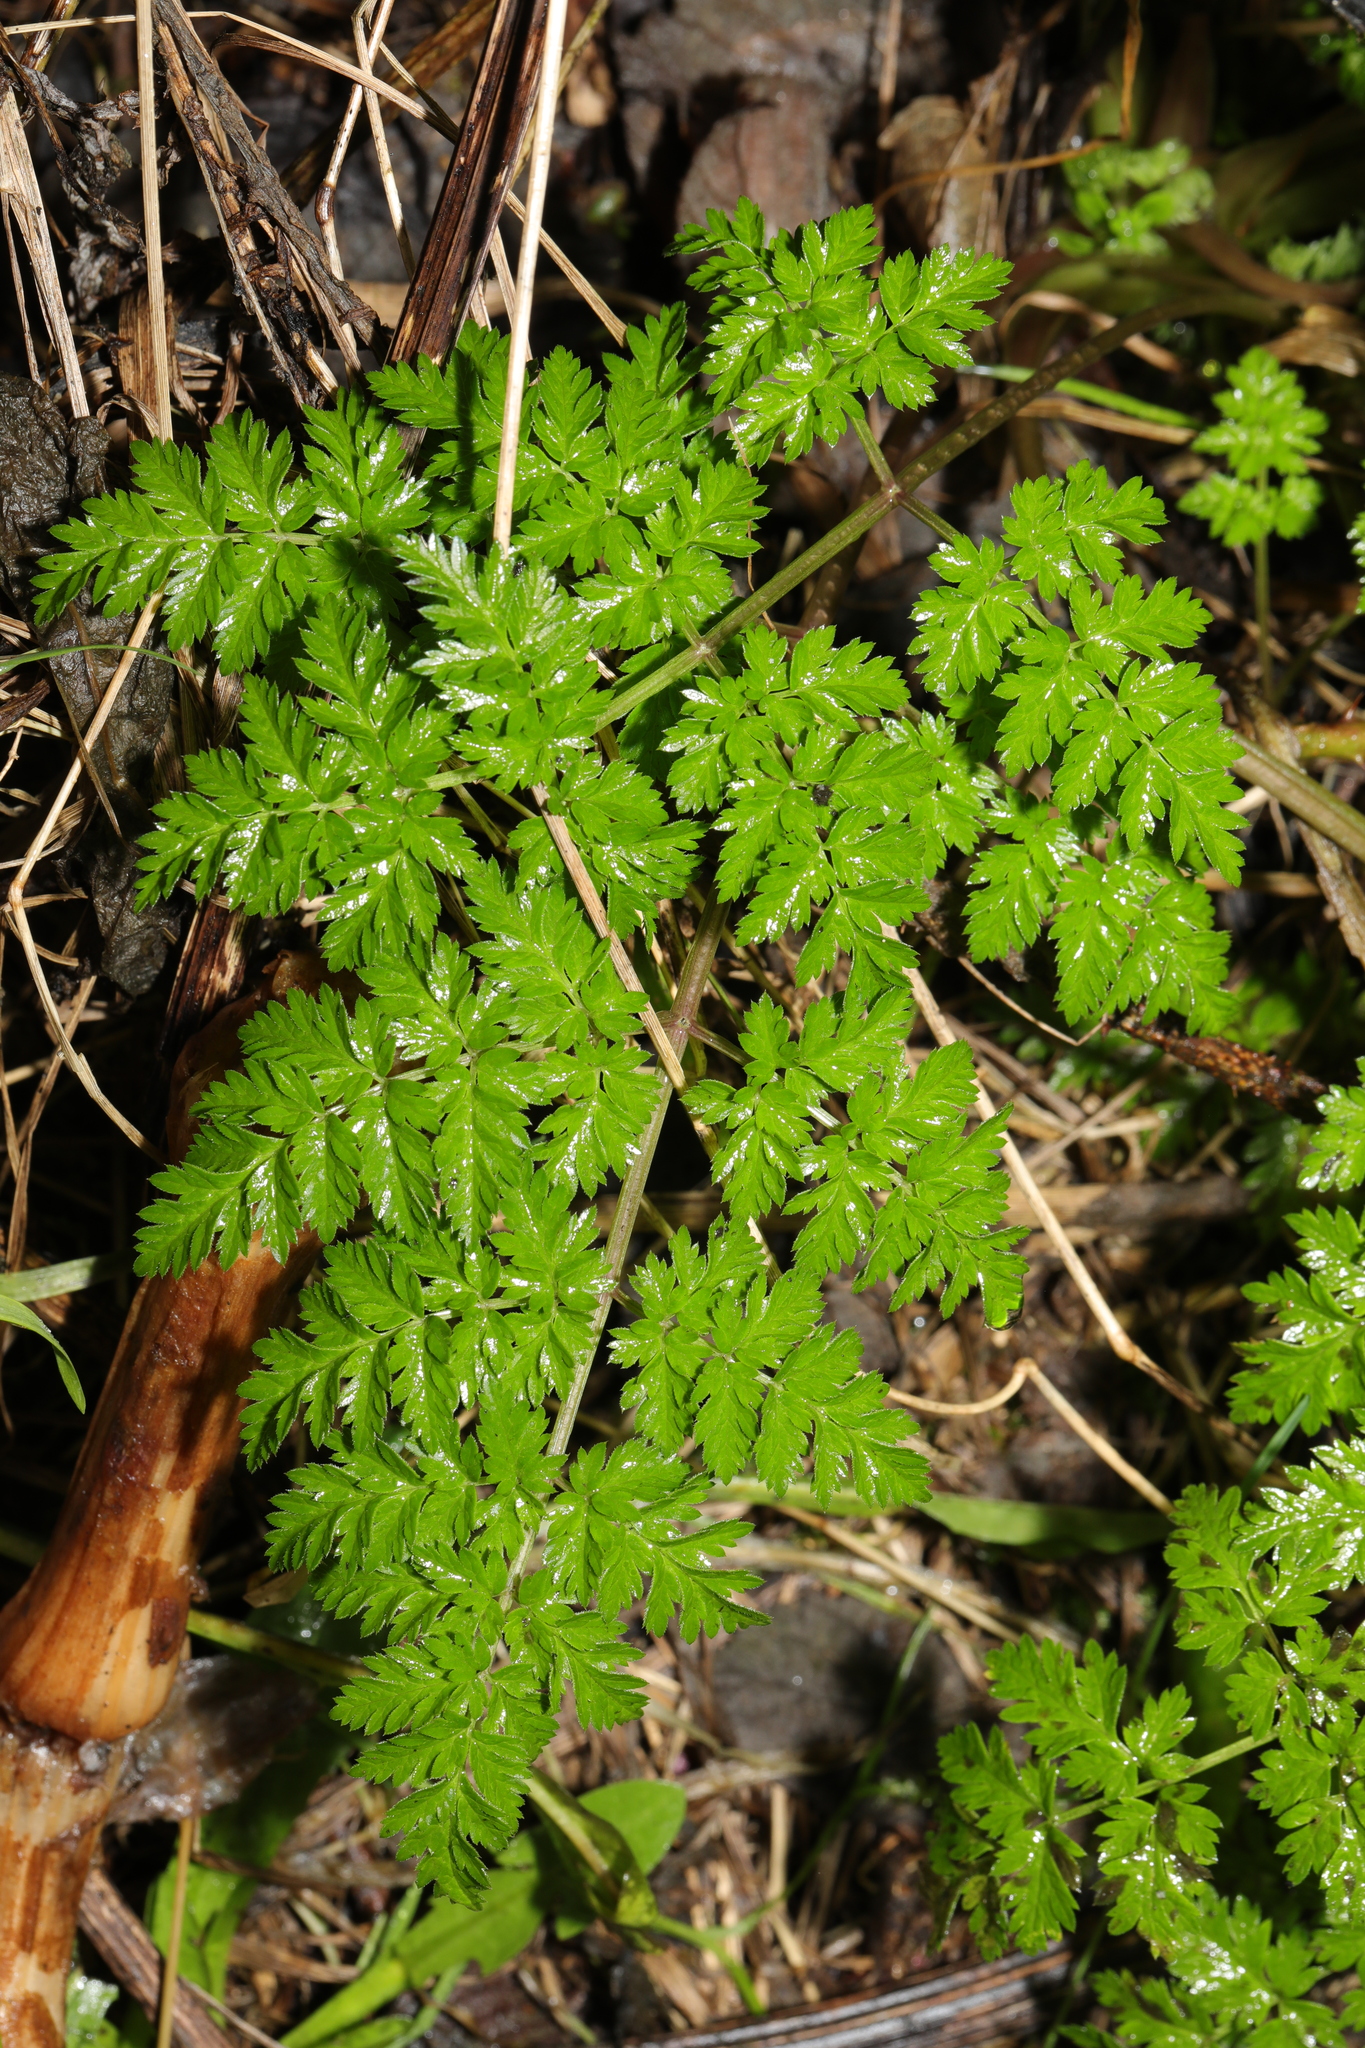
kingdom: Plantae
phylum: Tracheophyta
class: Magnoliopsida
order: Apiales
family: Apiaceae
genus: Anthriscus
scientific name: Anthriscus sylvestris
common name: Cow parsley
